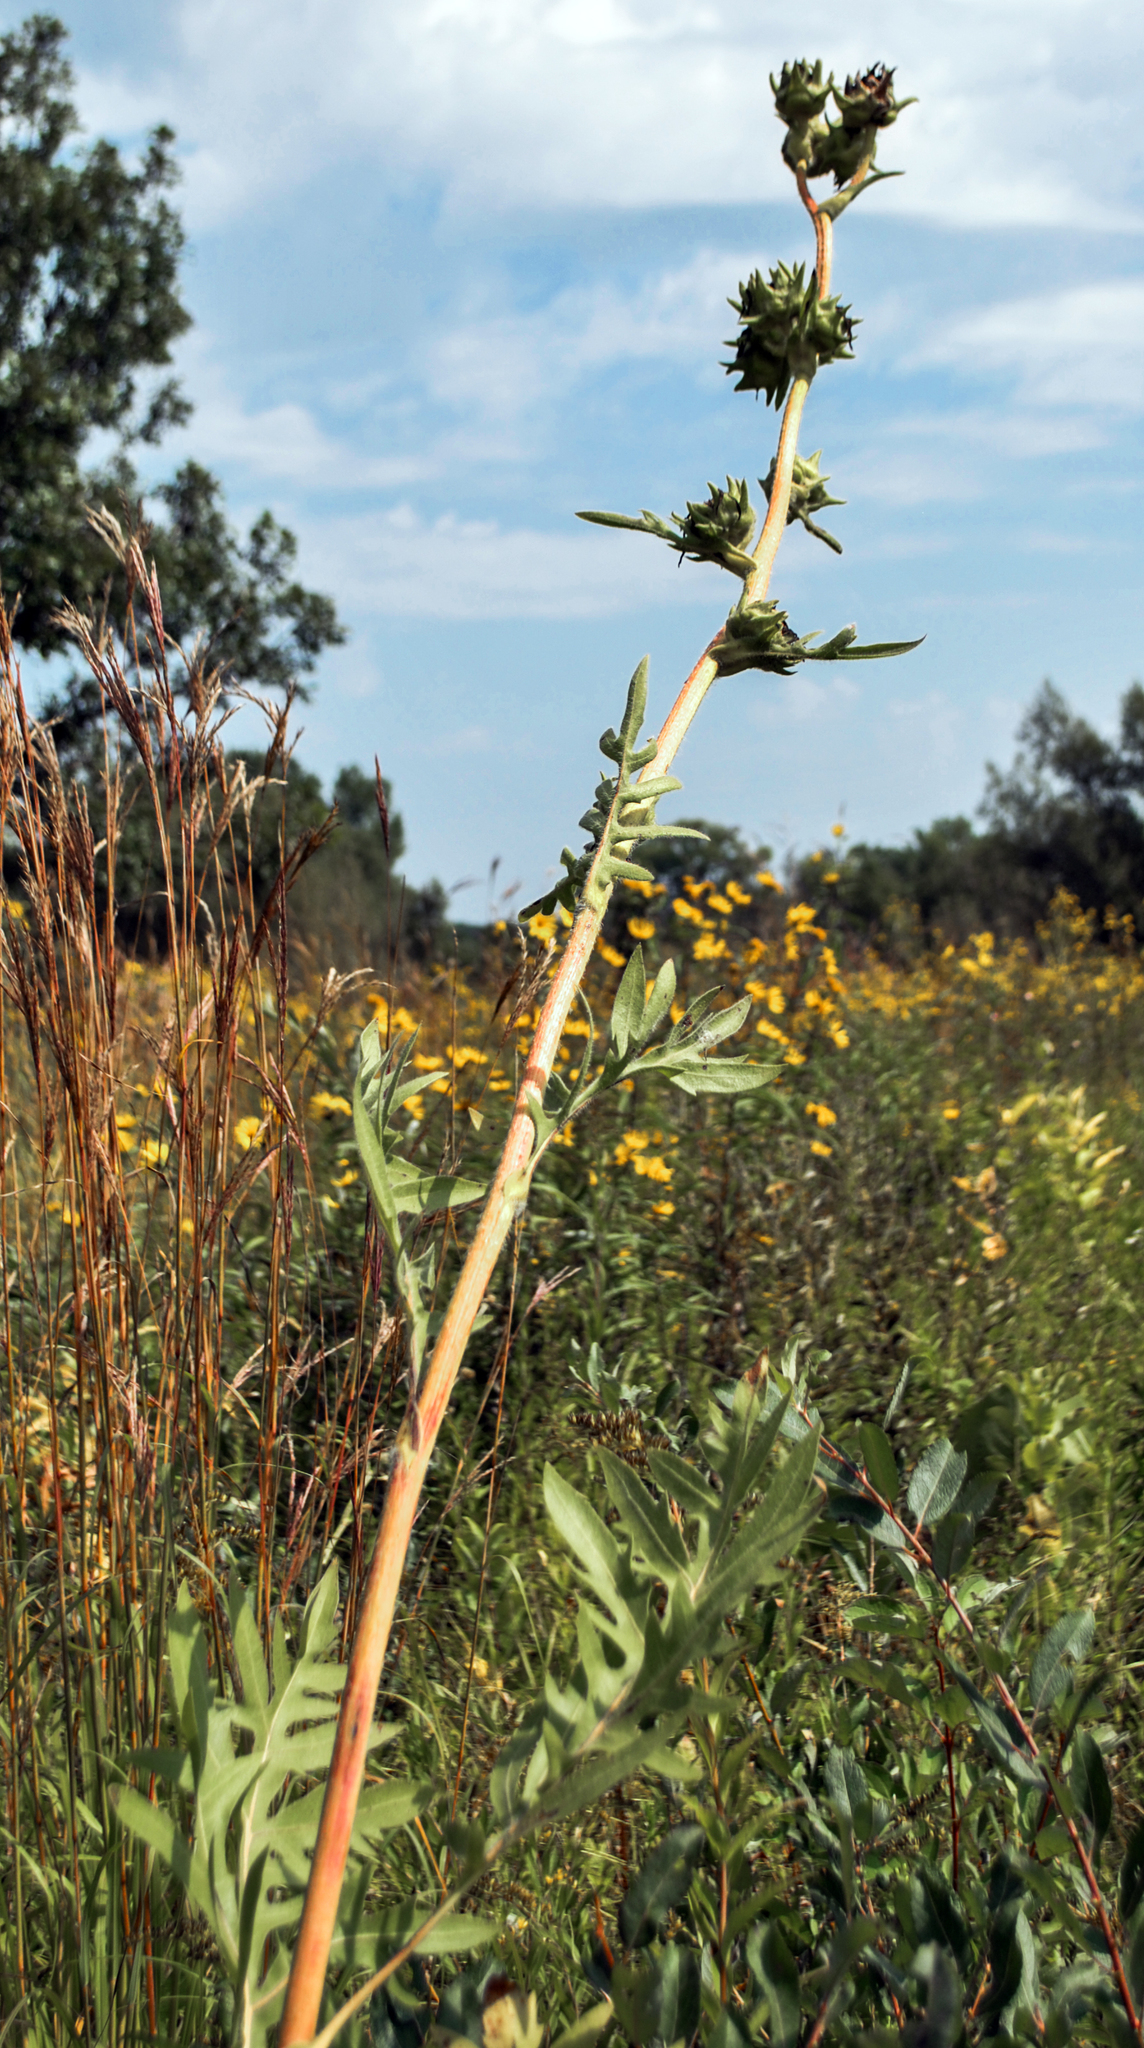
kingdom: Plantae
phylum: Tracheophyta
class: Magnoliopsida
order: Asterales
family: Asteraceae
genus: Silphium
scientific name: Silphium laciniatum
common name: Polarplant
